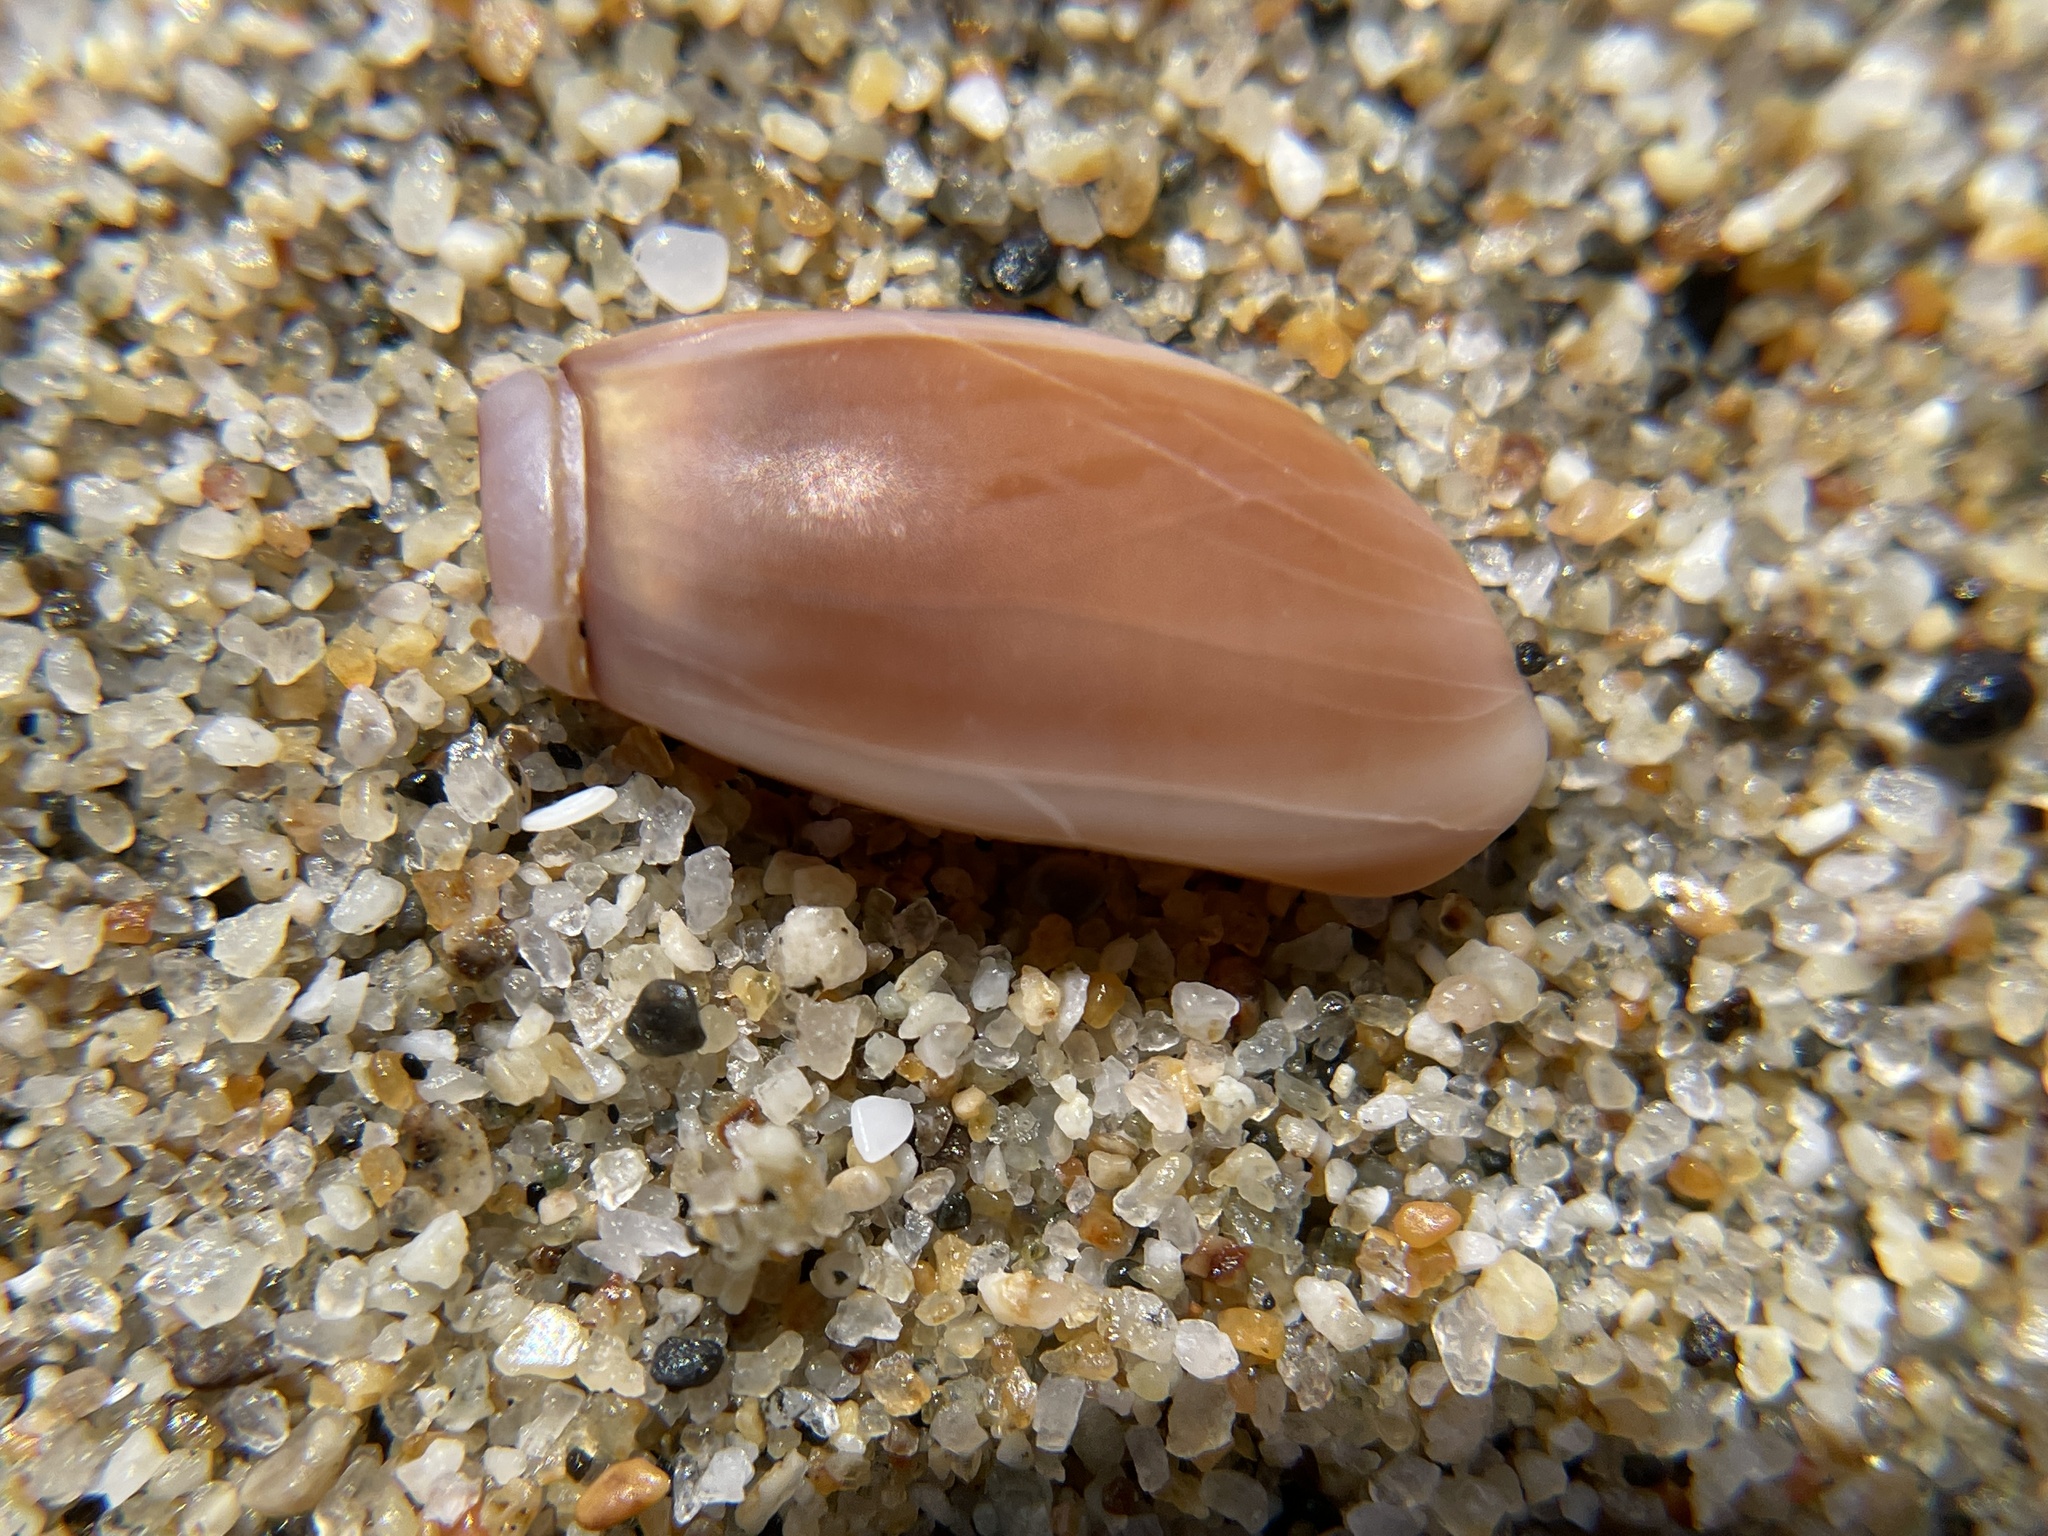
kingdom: Animalia
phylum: Mollusca
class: Gastropoda
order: Neogastropoda
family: Olividae
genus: Callianax
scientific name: Callianax biplicata
